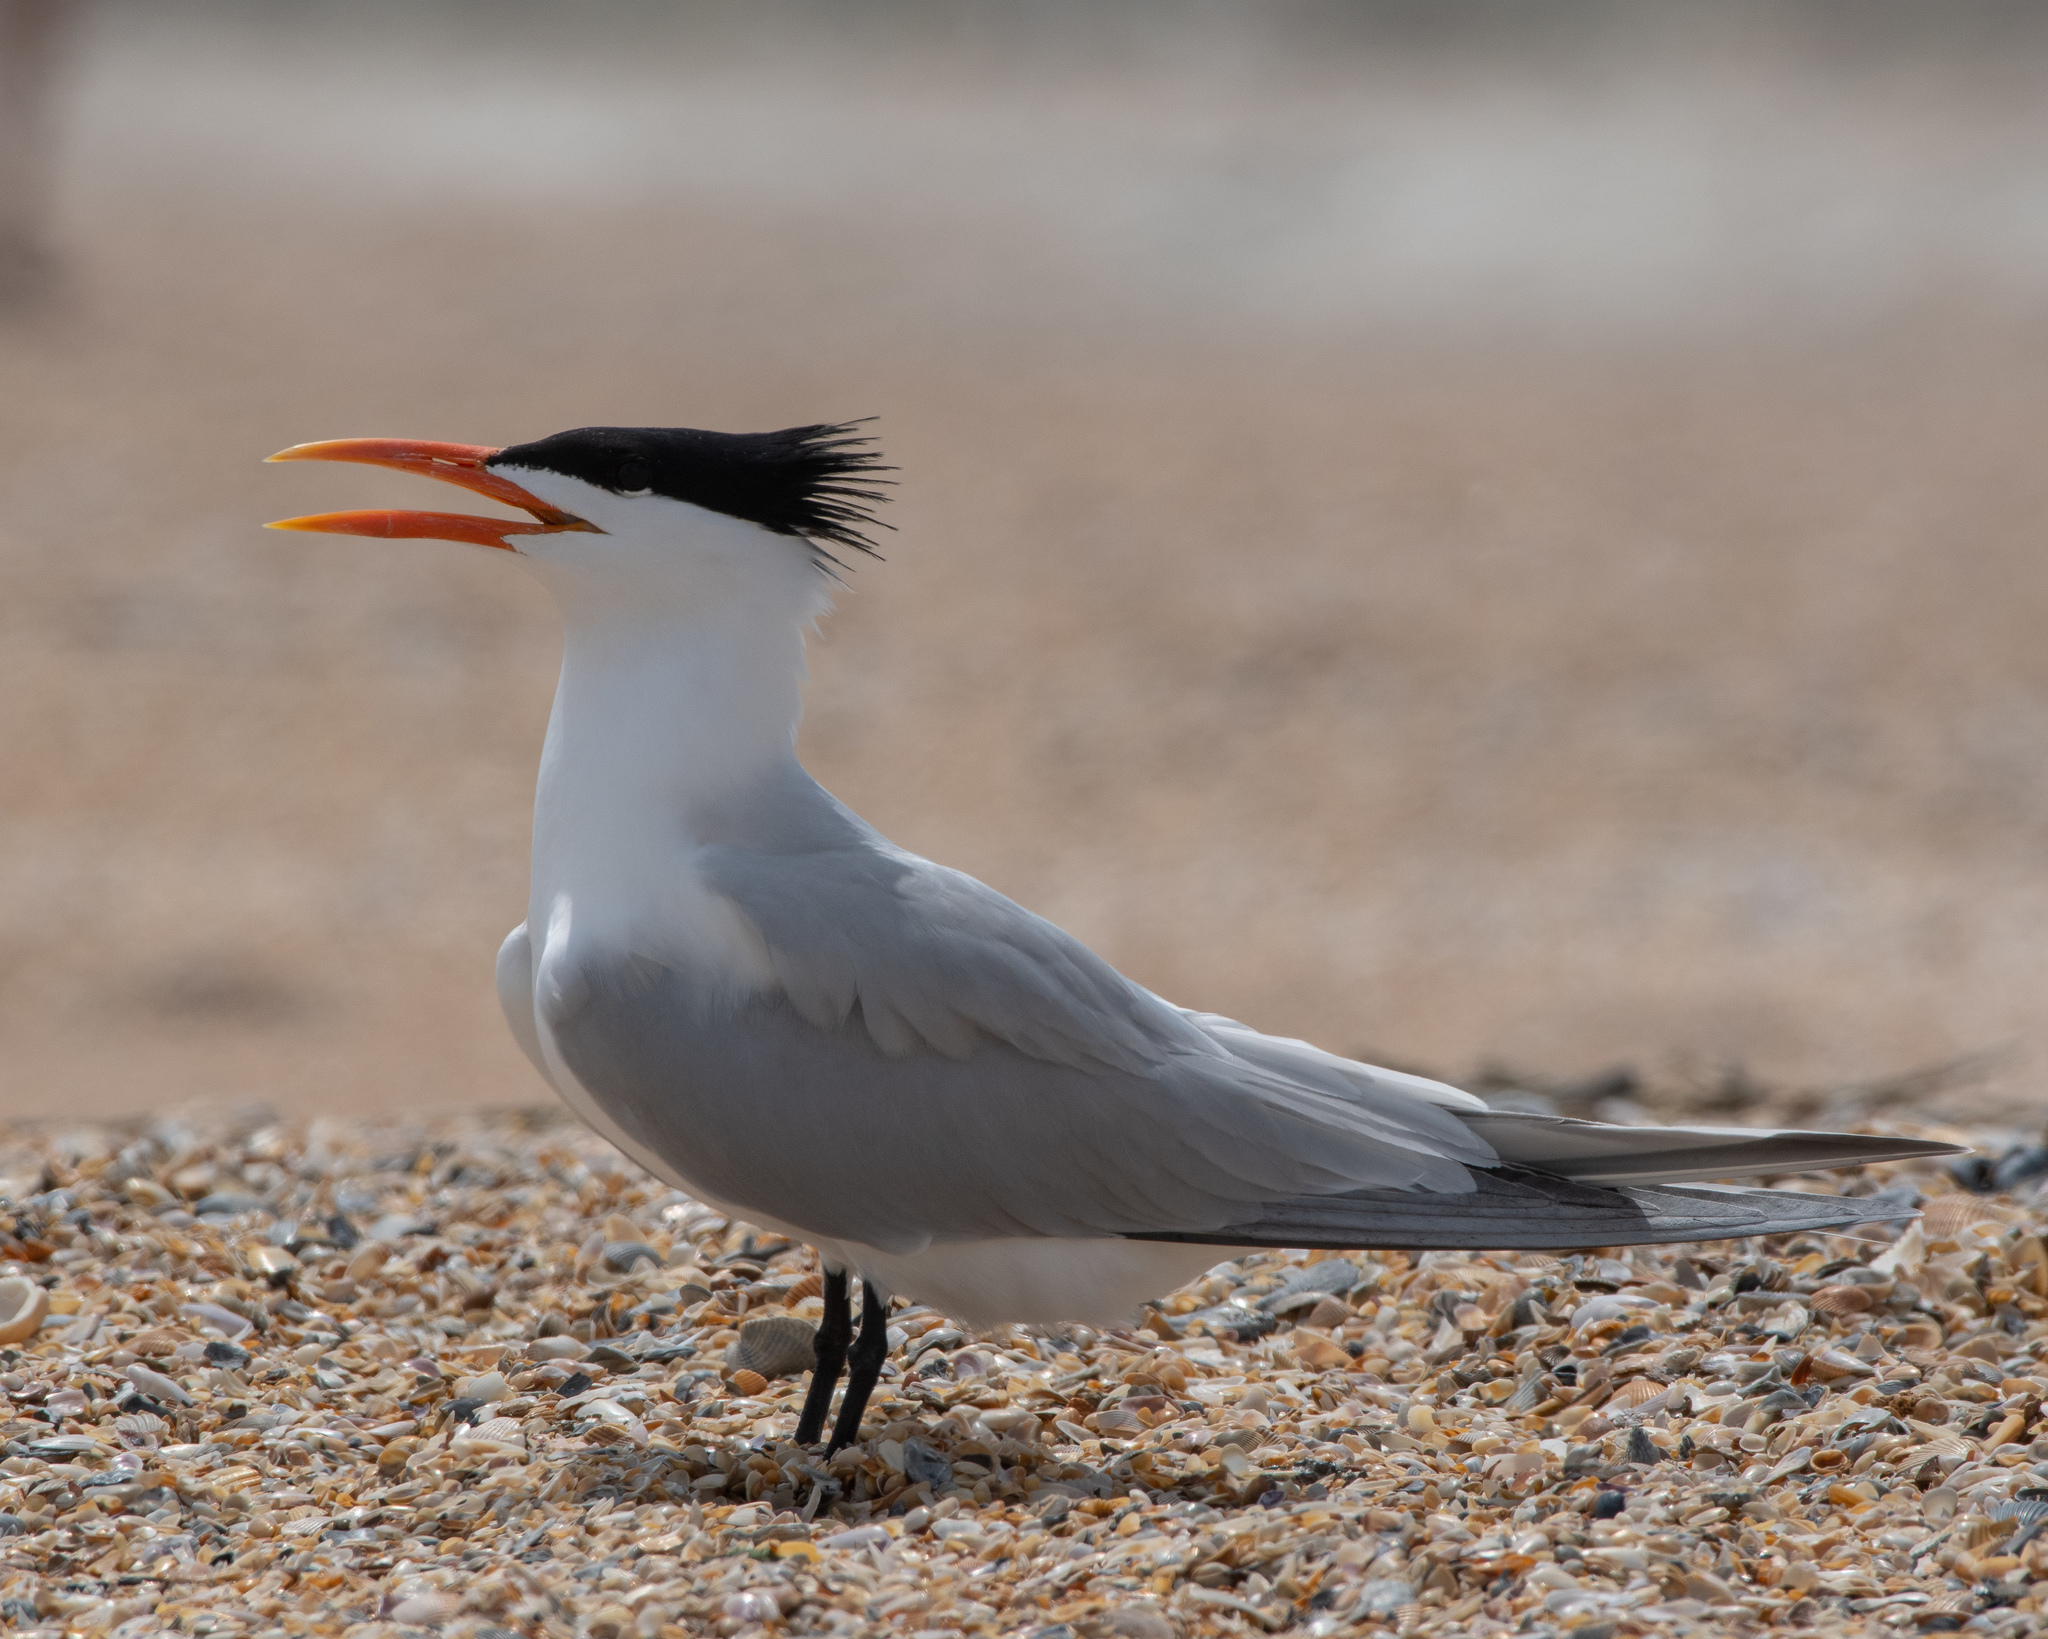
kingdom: Animalia
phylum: Chordata
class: Aves
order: Charadriiformes
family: Laridae
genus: Thalasseus
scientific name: Thalasseus maximus
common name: Royal tern
